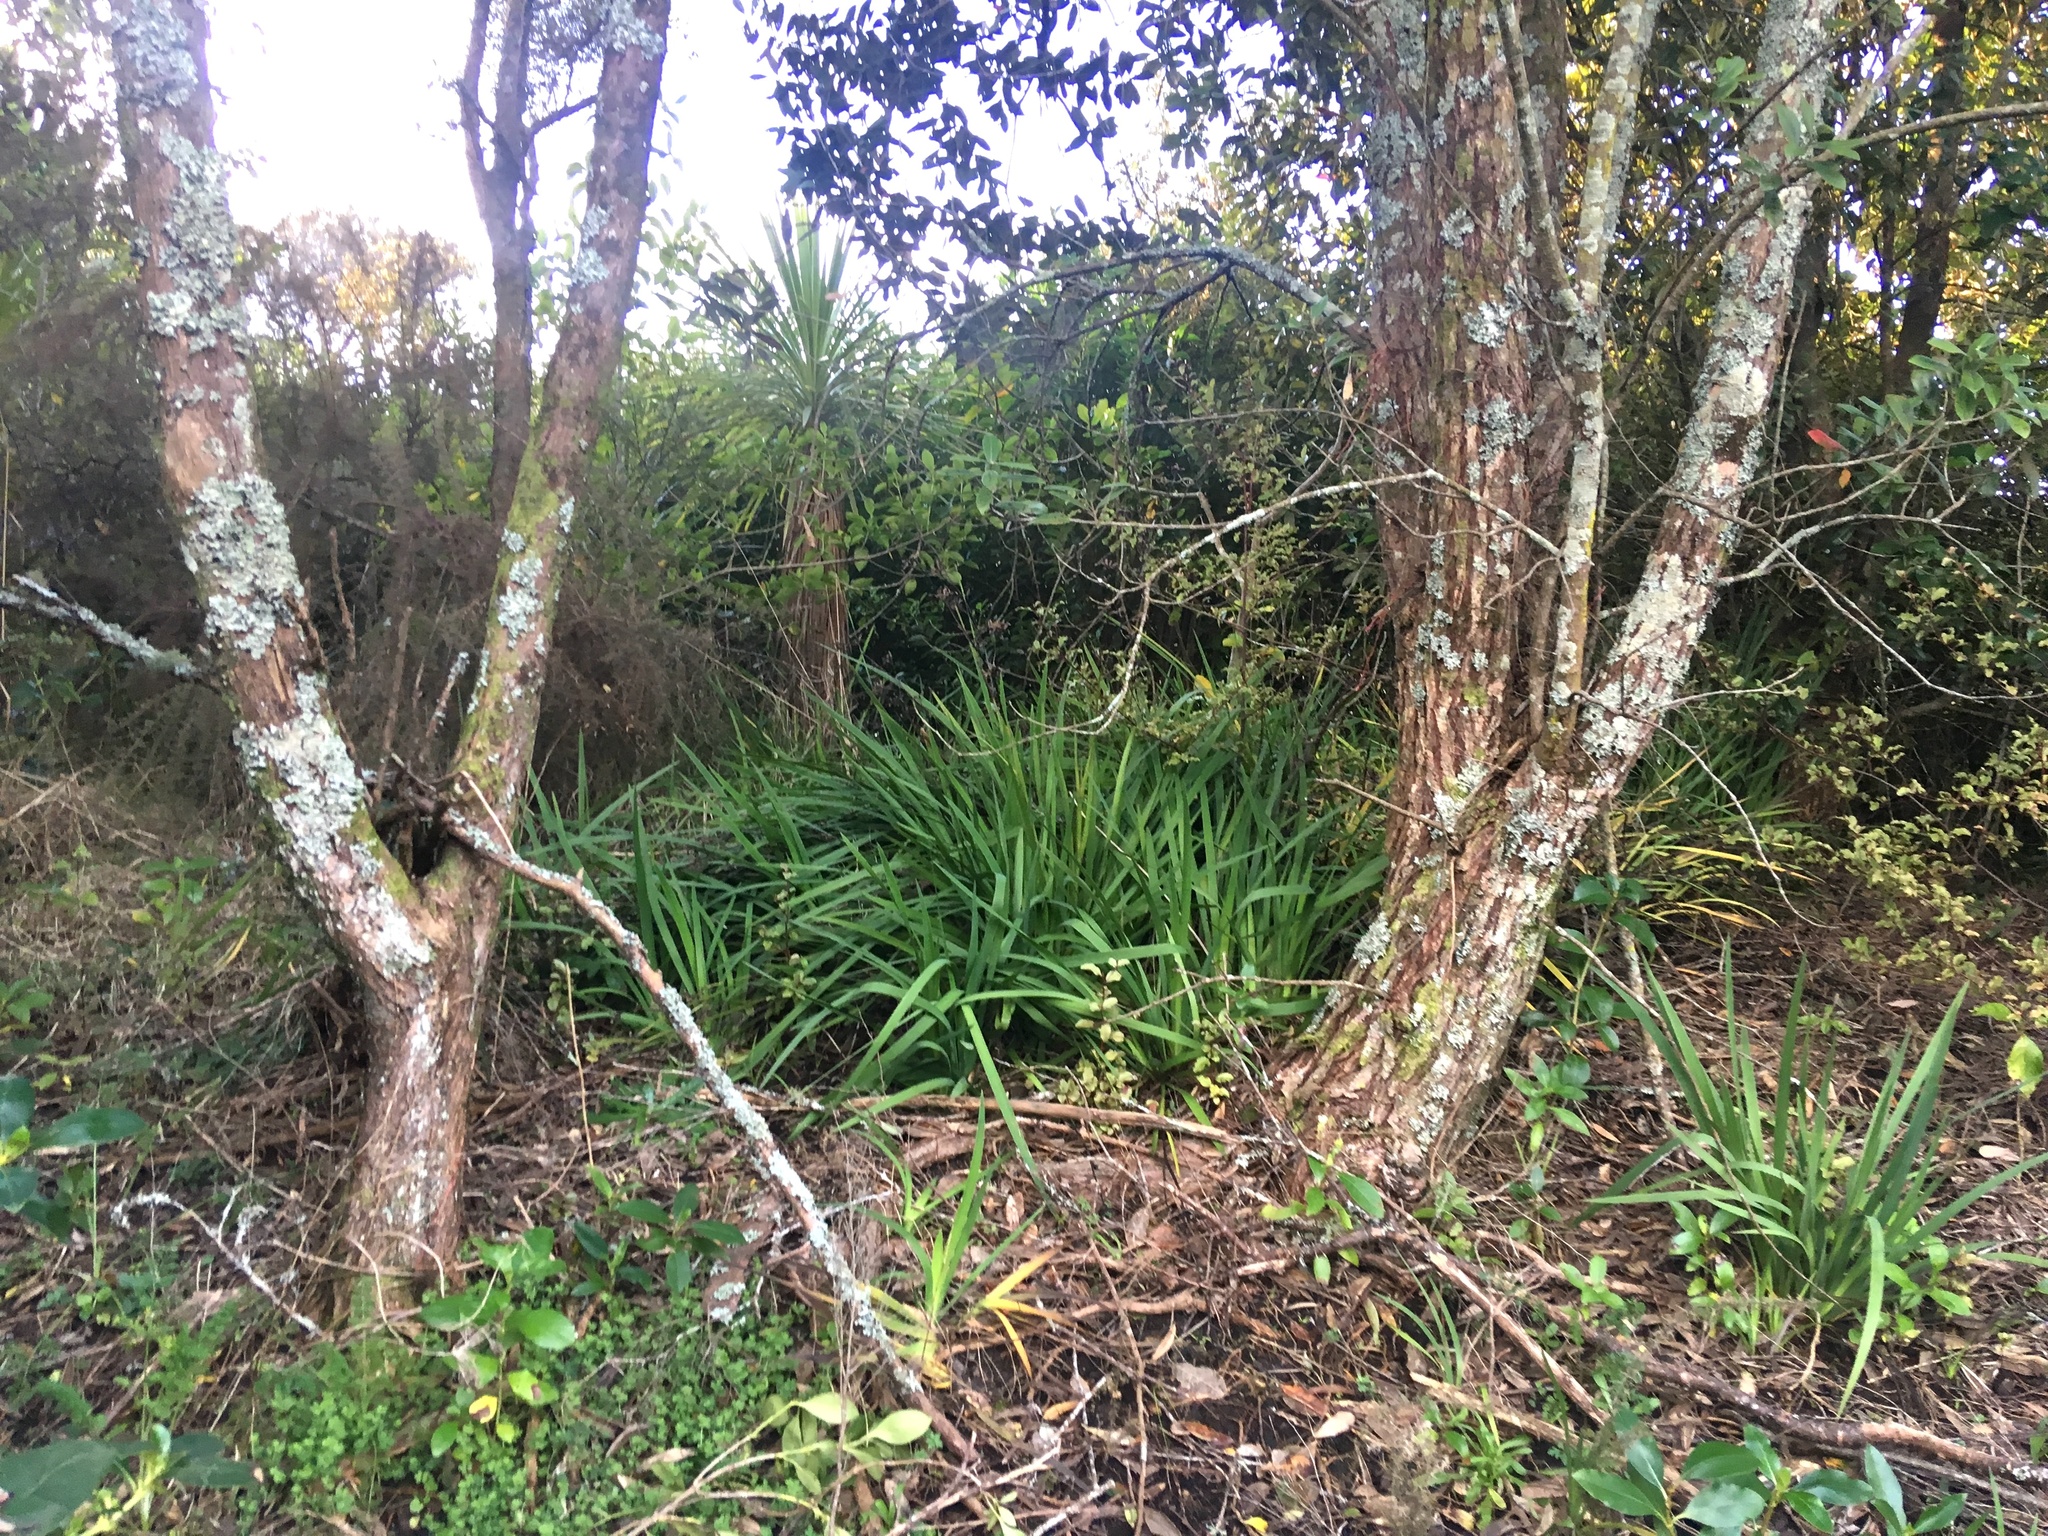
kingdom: Plantae
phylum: Tracheophyta
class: Liliopsida
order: Asparagales
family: Iridaceae
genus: Aristea
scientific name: Aristea ecklonii
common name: Blue corn-lily
